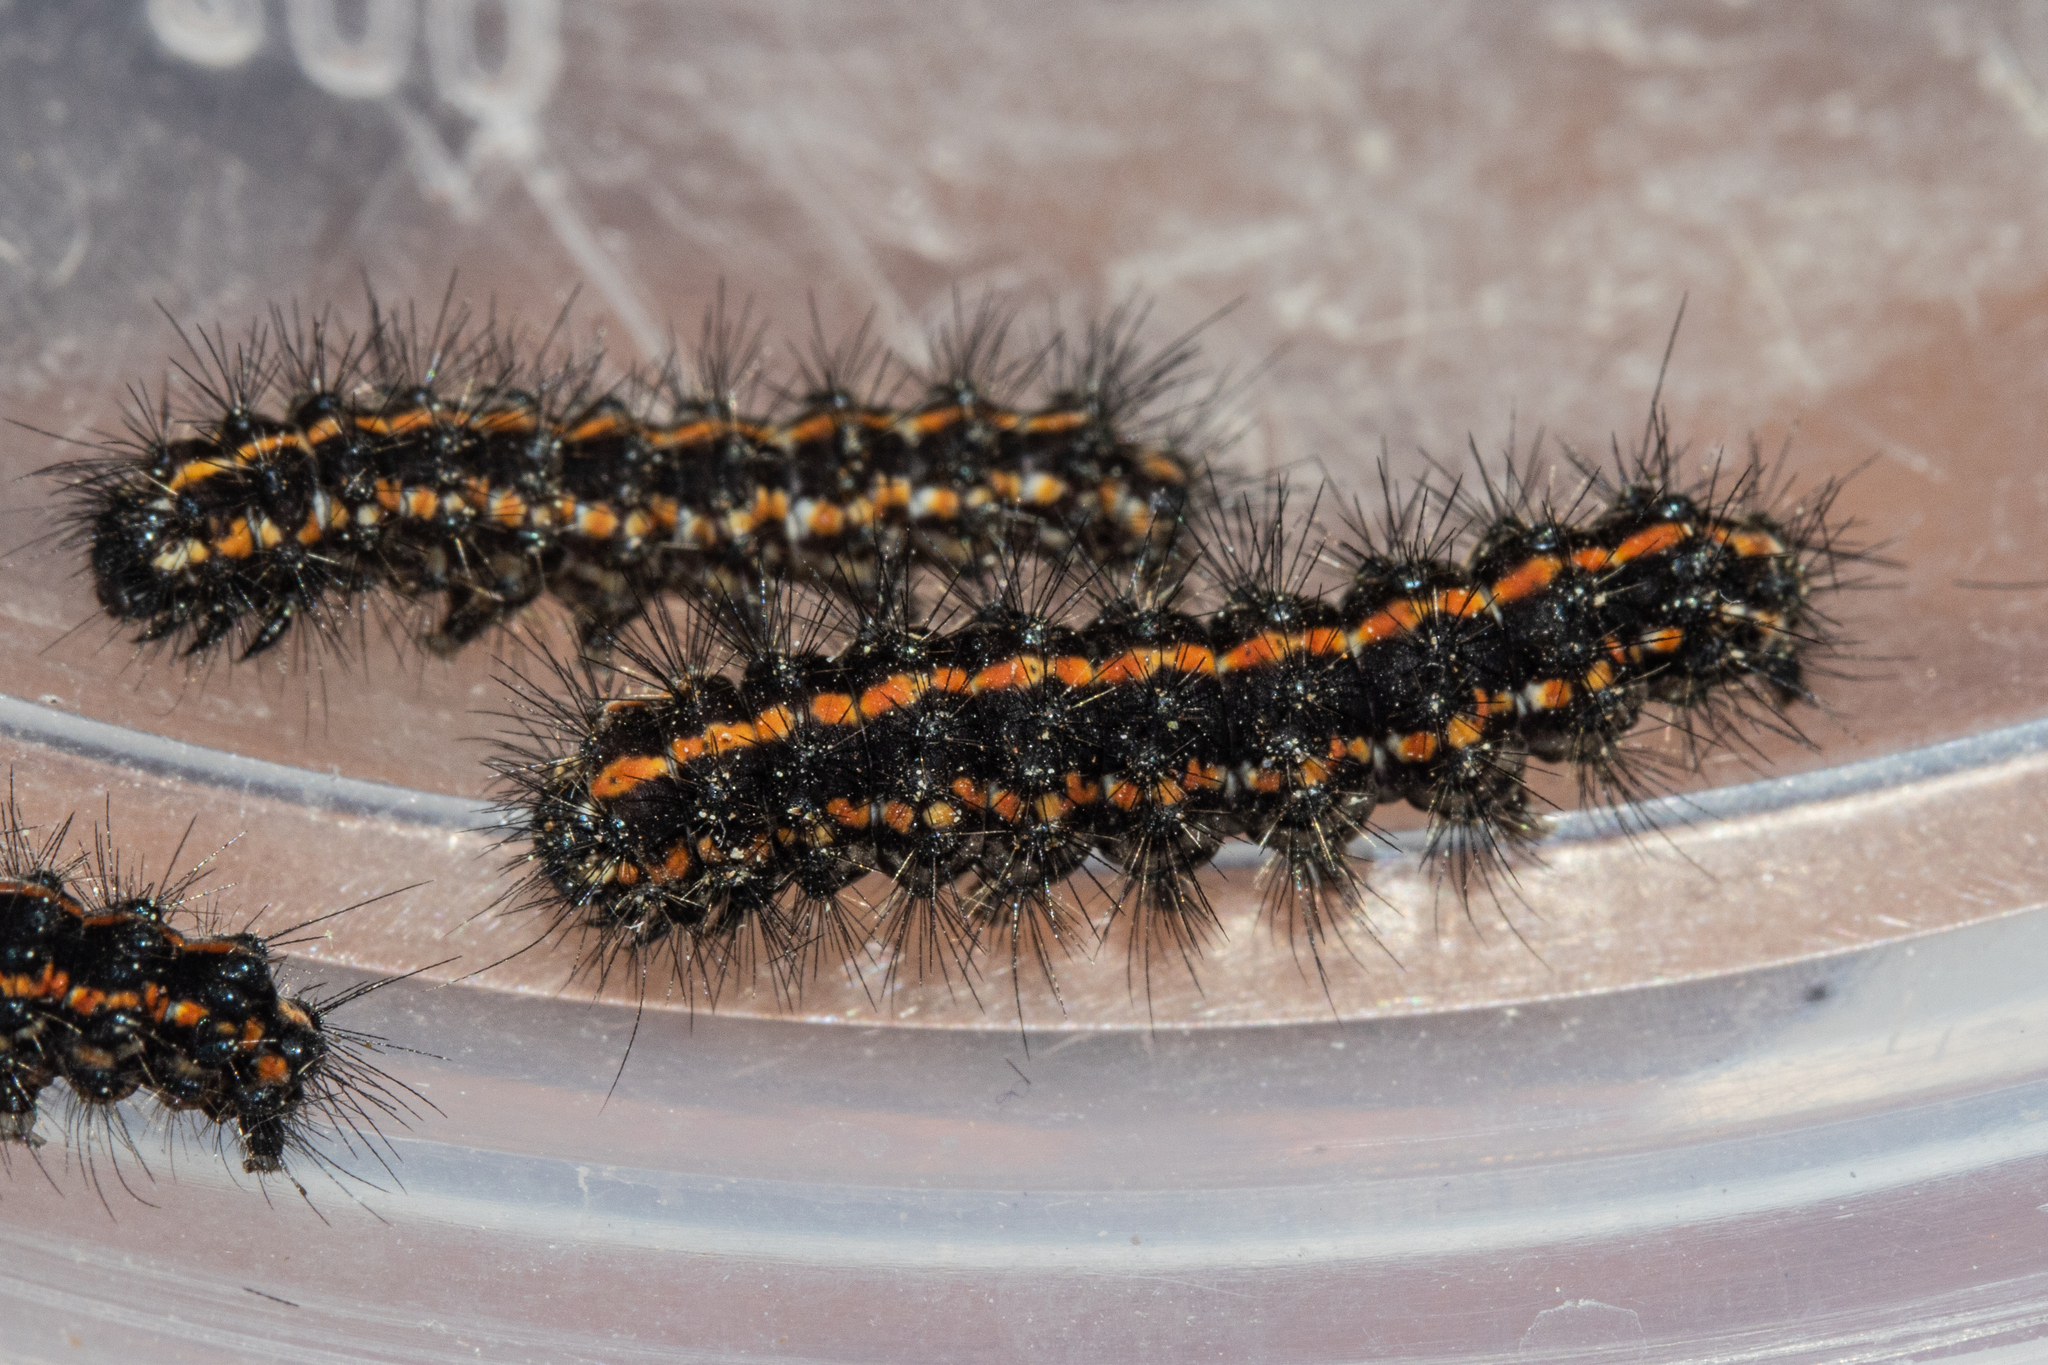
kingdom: Animalia
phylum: Arthropoda
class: Insecta
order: Lepidoptera
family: Erebidae
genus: Nyctemera
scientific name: Nyctemera annulatum
